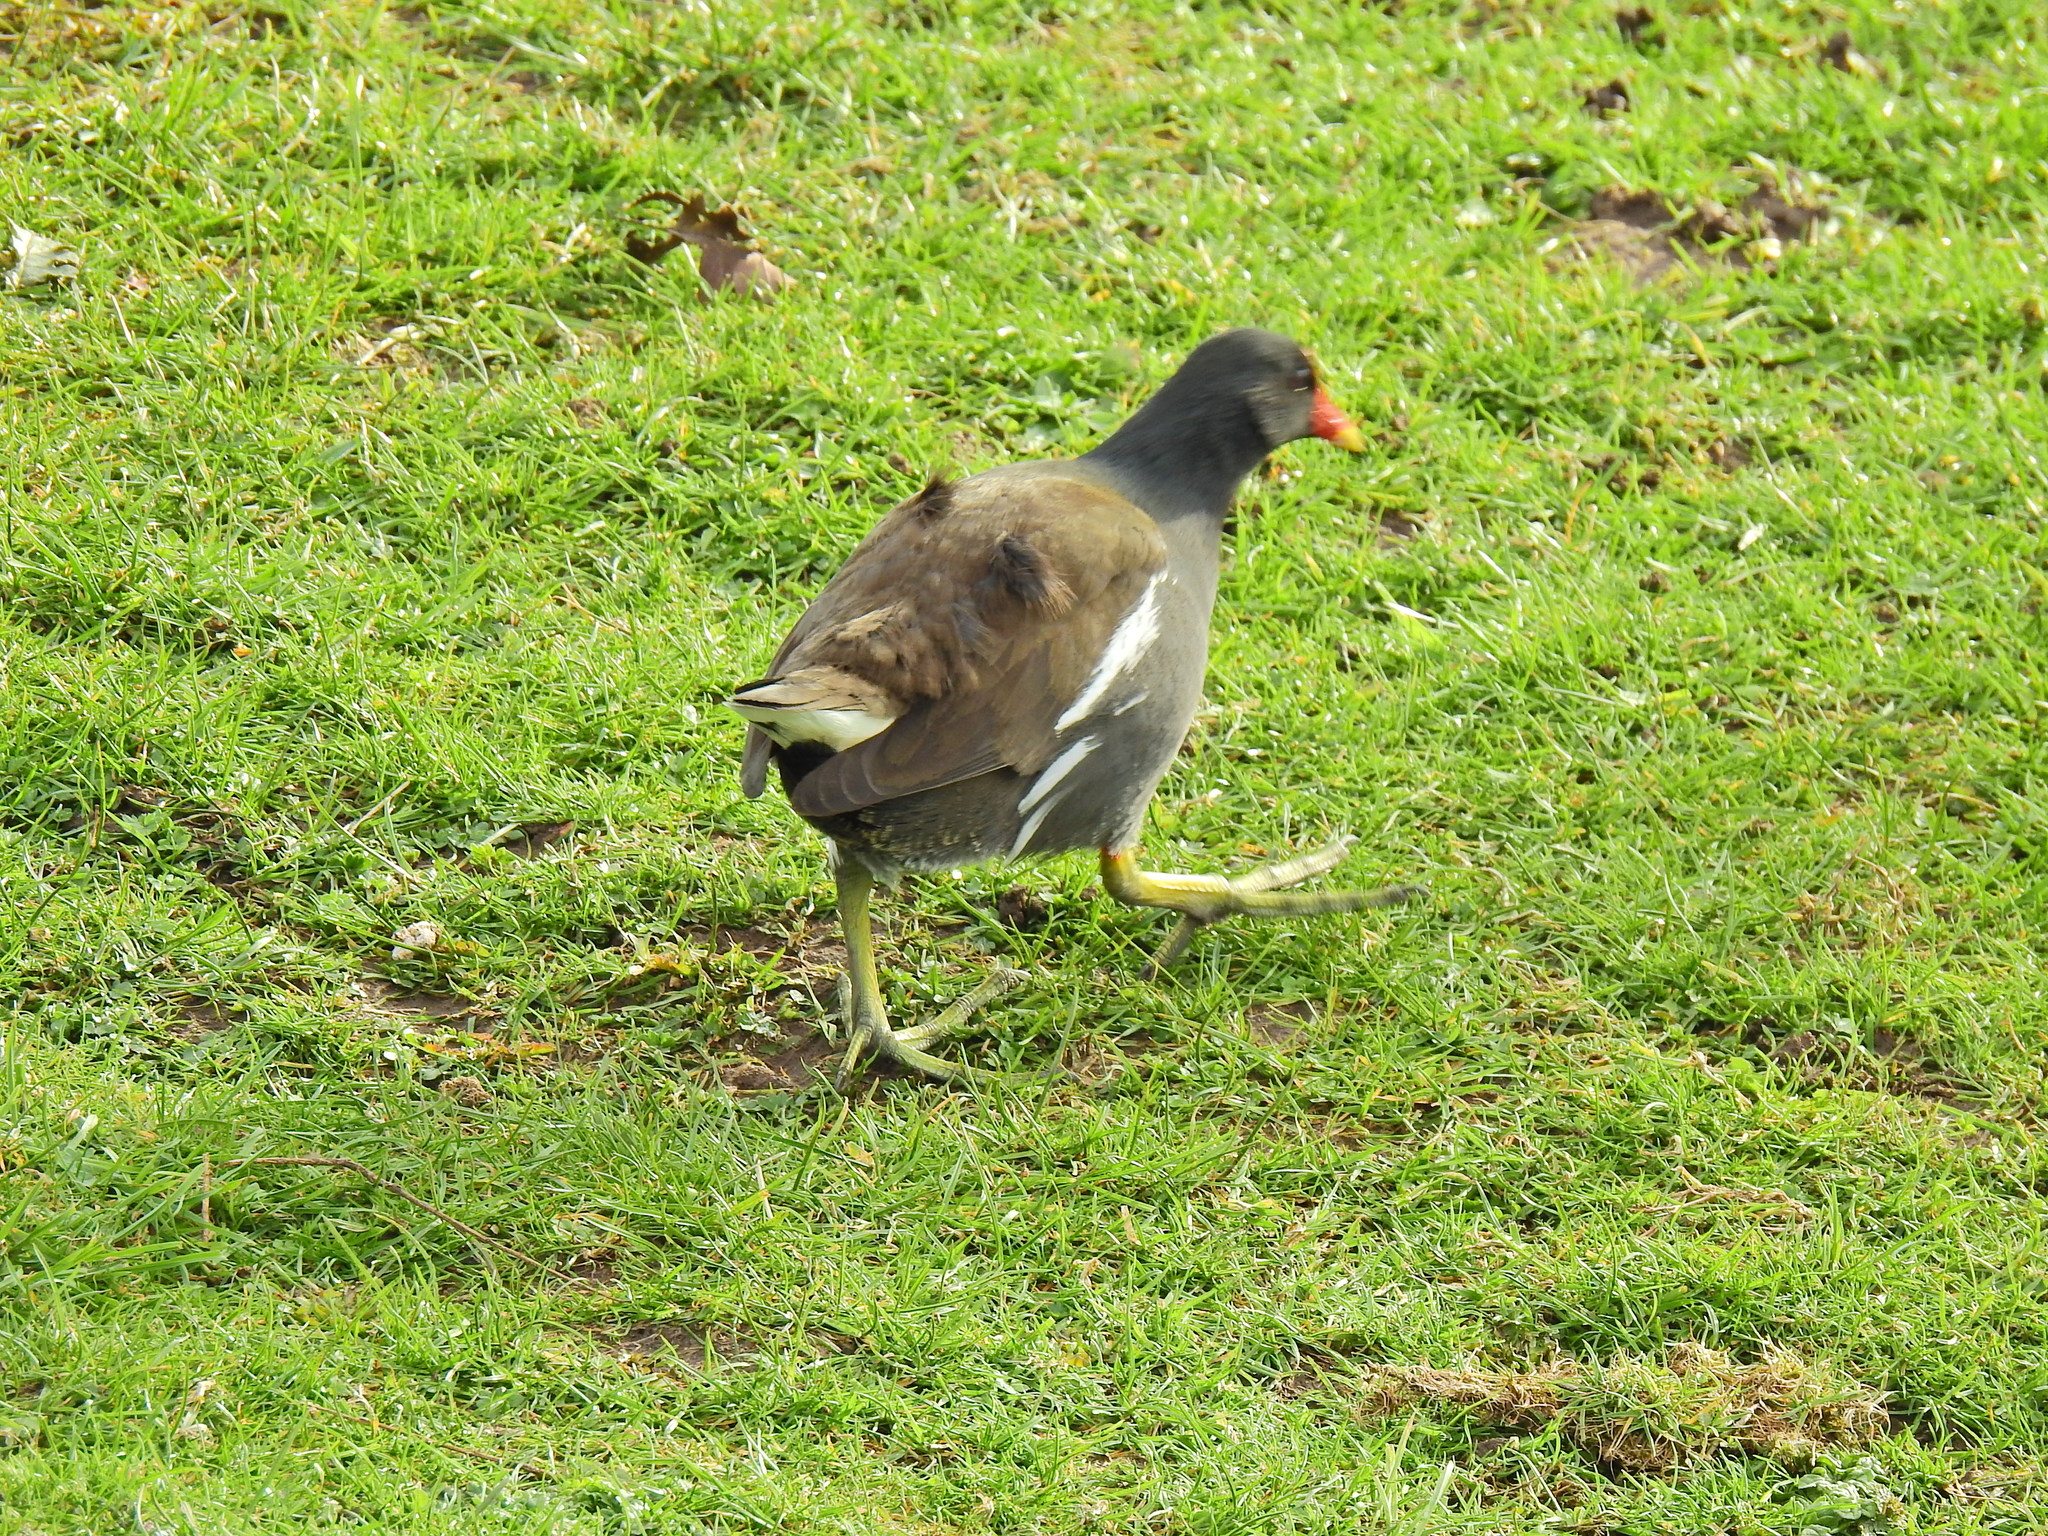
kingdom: Animalia
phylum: Chordata
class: Aves
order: Gruiformes
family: Rallidae
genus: Gallinula
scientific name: Gallinula chloropus
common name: Common moorhen
